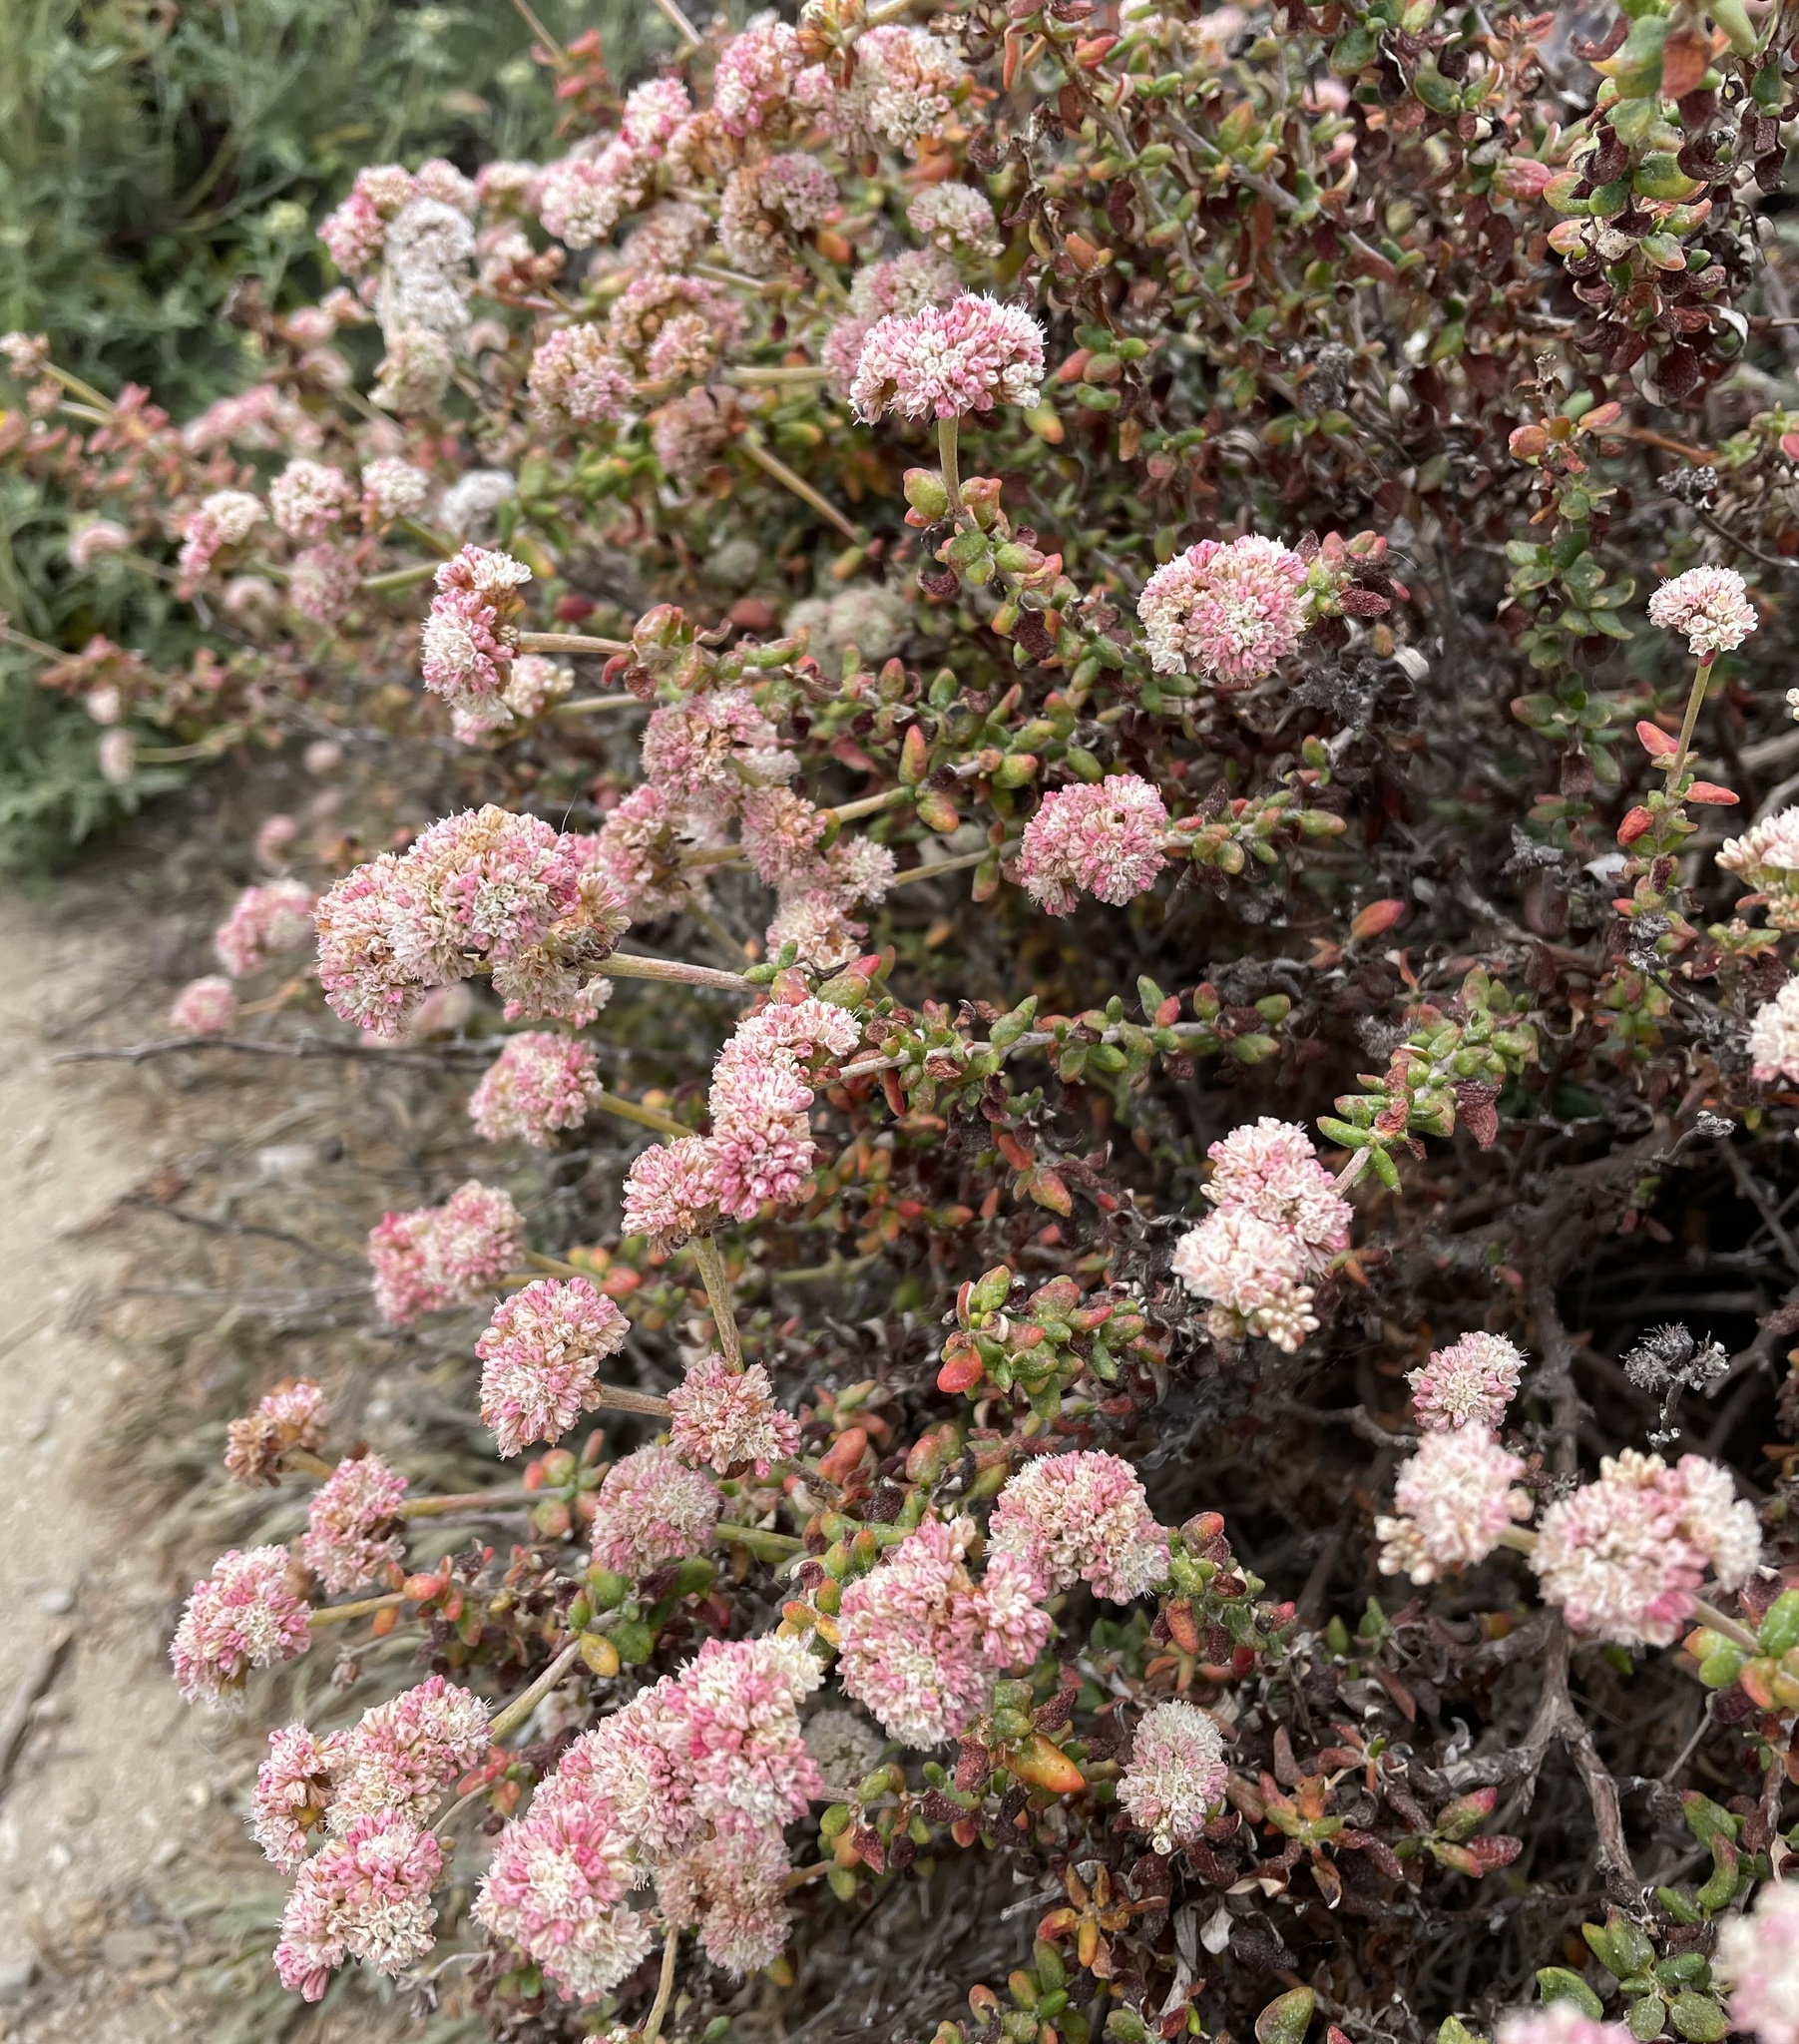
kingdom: Plantae
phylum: Tracheophyta
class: Magnoliopsida
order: Caryophyllales
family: Polygonaceae
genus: Eriogonum
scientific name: Eriogonum parvifolium
